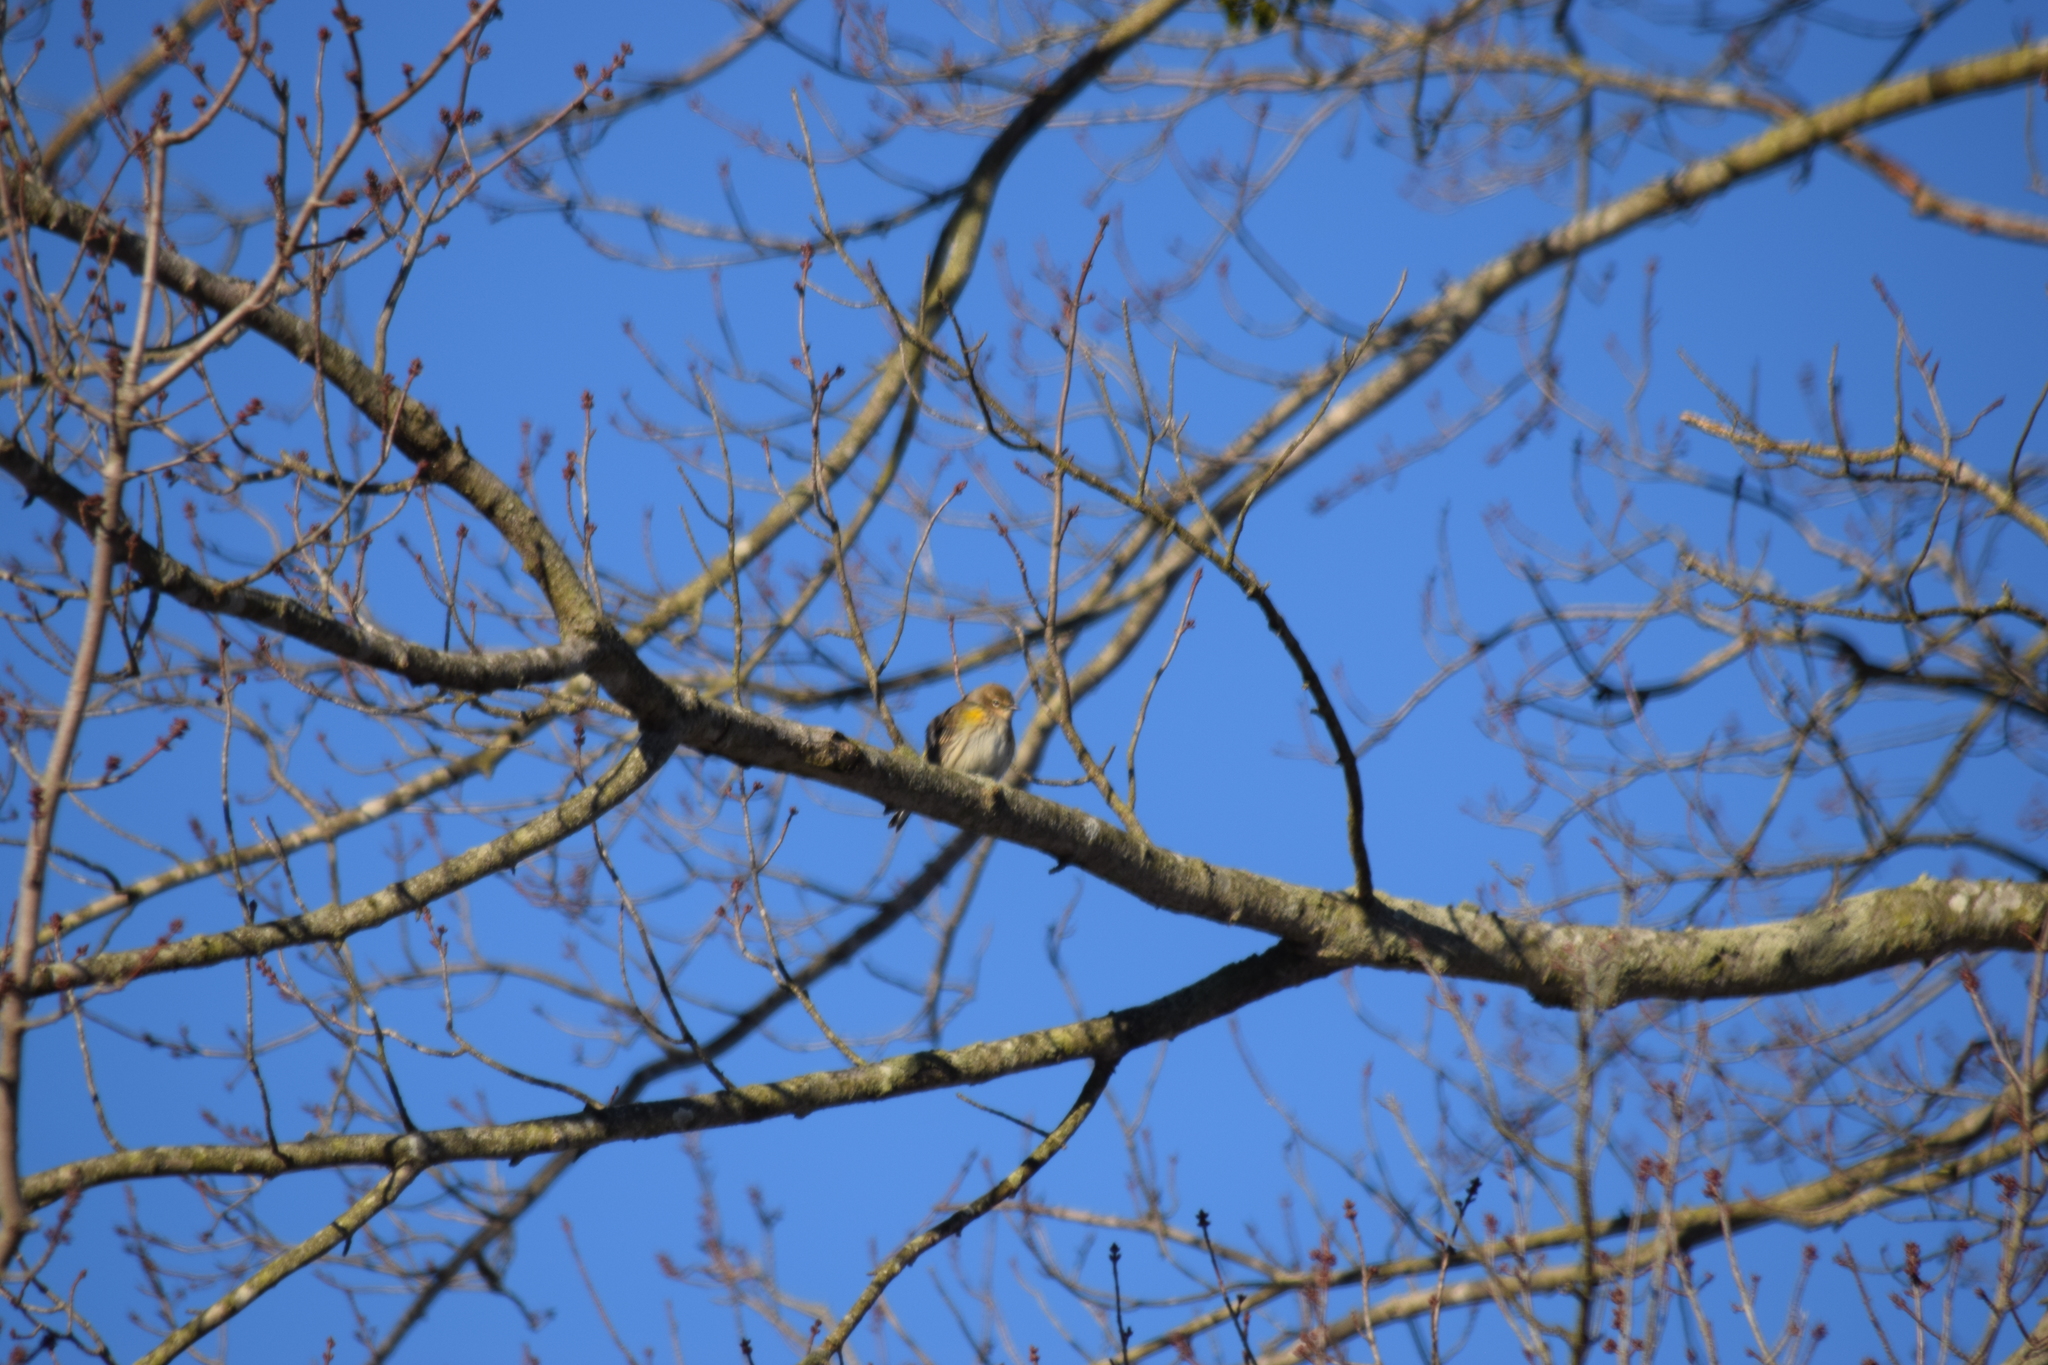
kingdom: Animalia
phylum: Chordata
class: Aves
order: Passeriformes
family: Parulidae
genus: Setophaga
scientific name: Setophaga coronata
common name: Myrtle warbler
